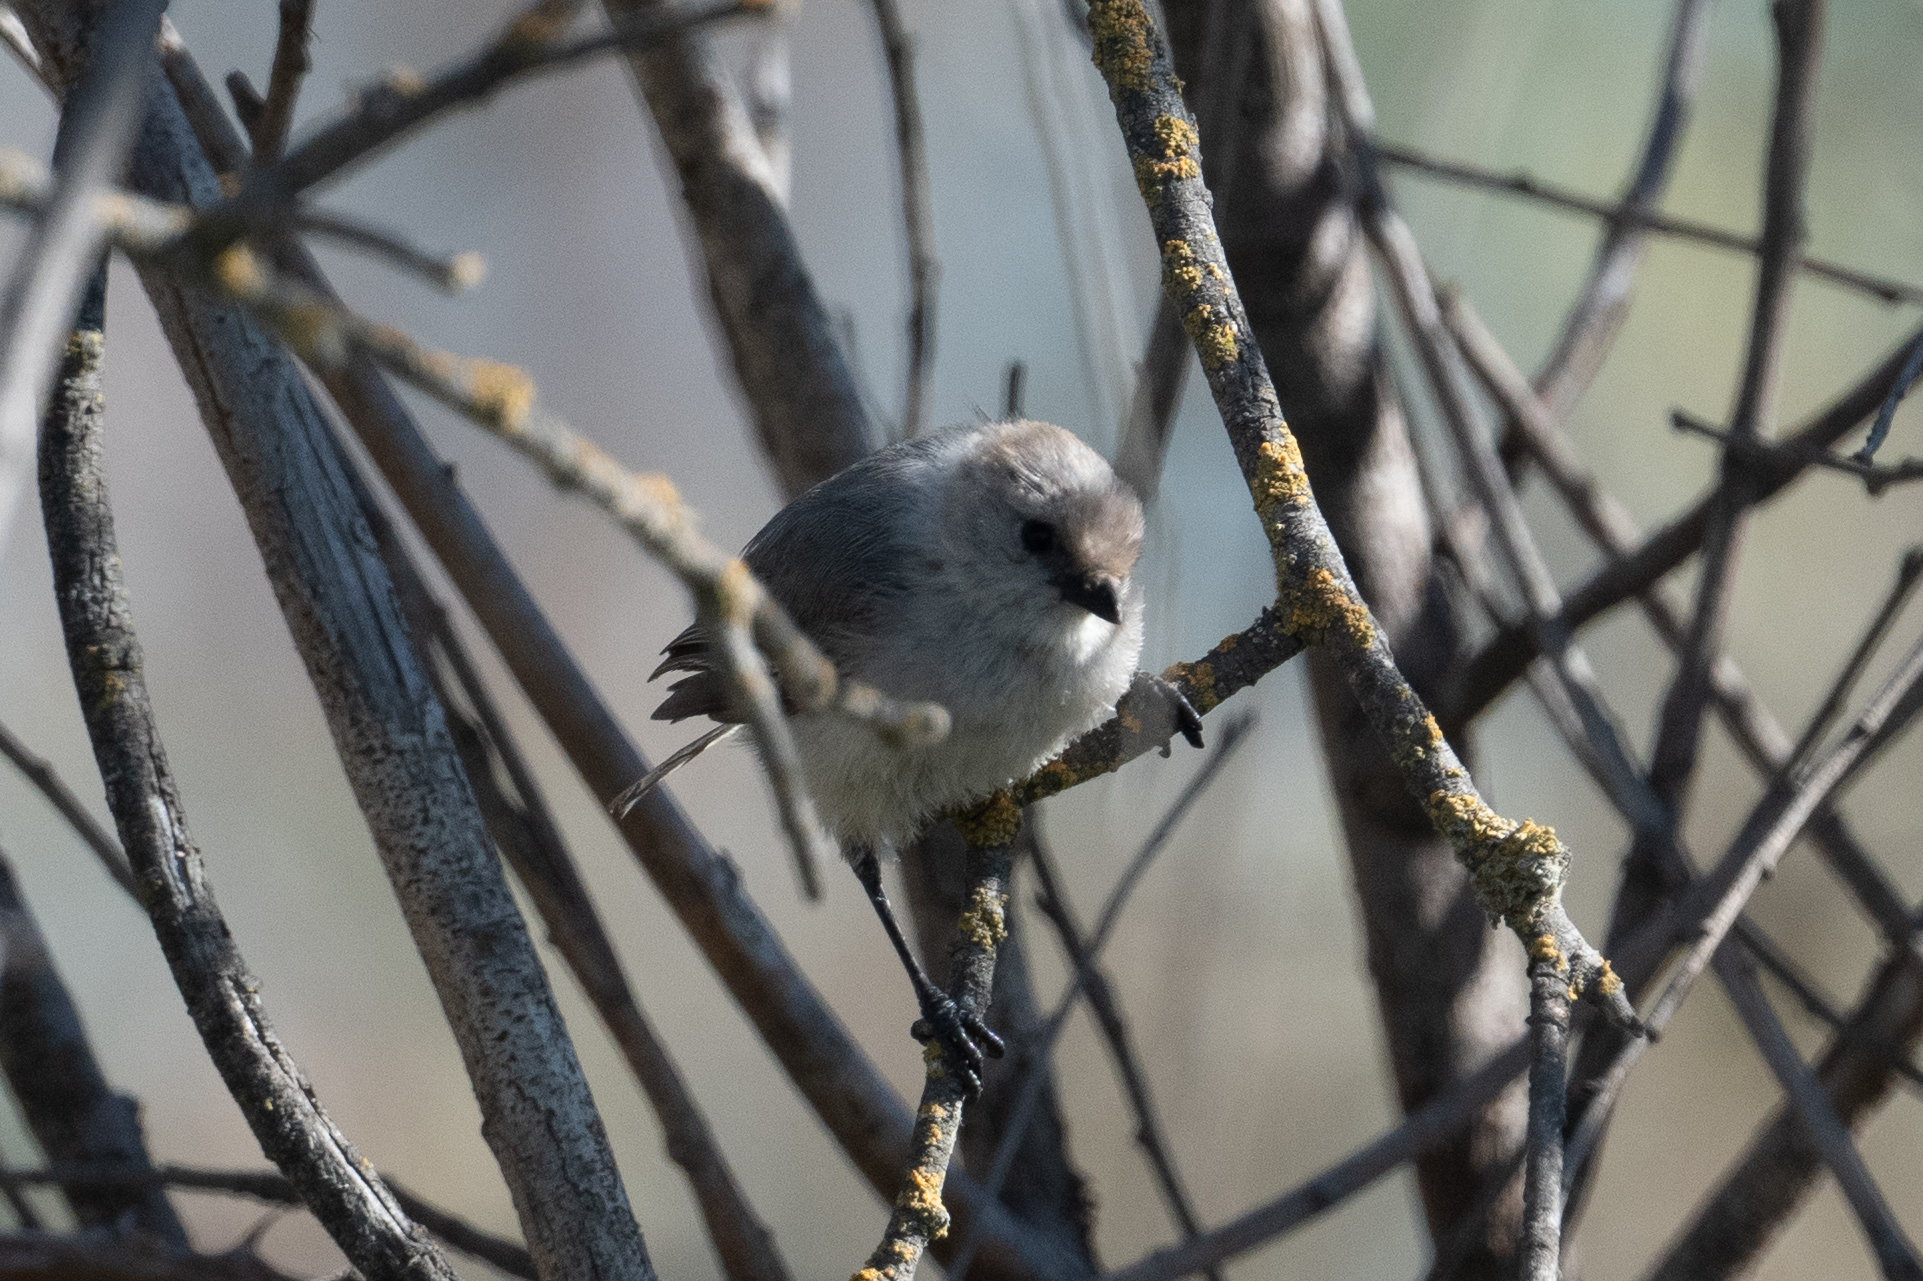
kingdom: Animalia
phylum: Chordata
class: Aves
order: Passeriformes
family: Aegithalidae
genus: Psaltriparus
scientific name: Psaltriparus minimus
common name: American bushtit
